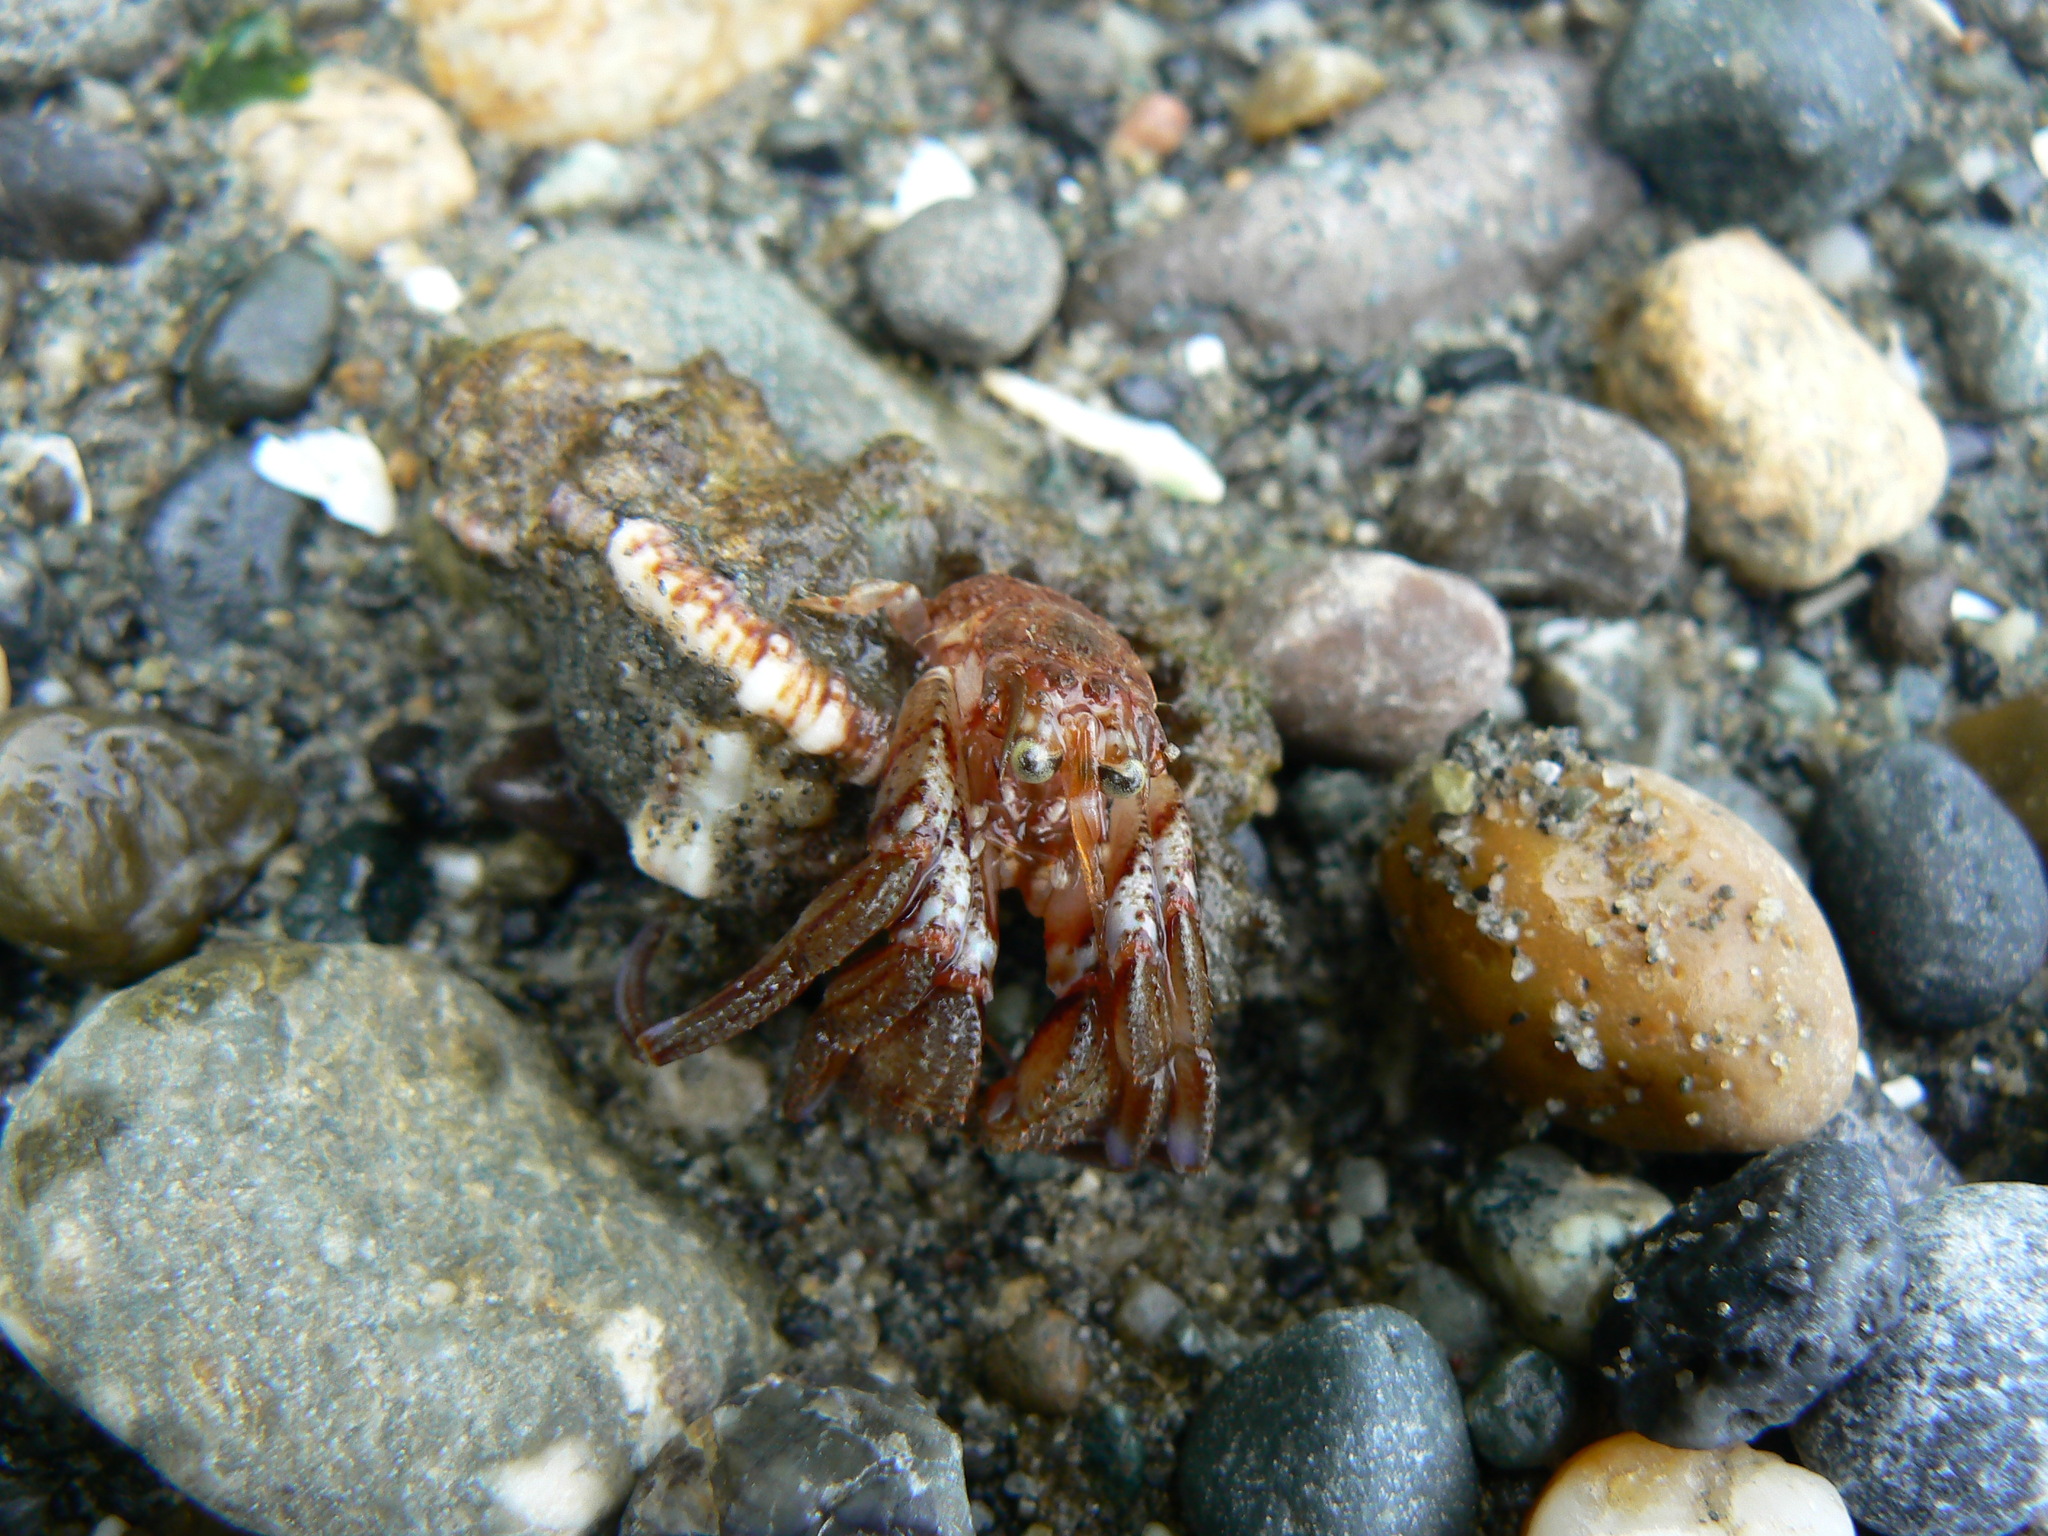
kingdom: Animalia
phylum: Arthropoda
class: Malacostraca
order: Decapoda
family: Paguridae
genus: Pagurus
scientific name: Pagurus armatus
